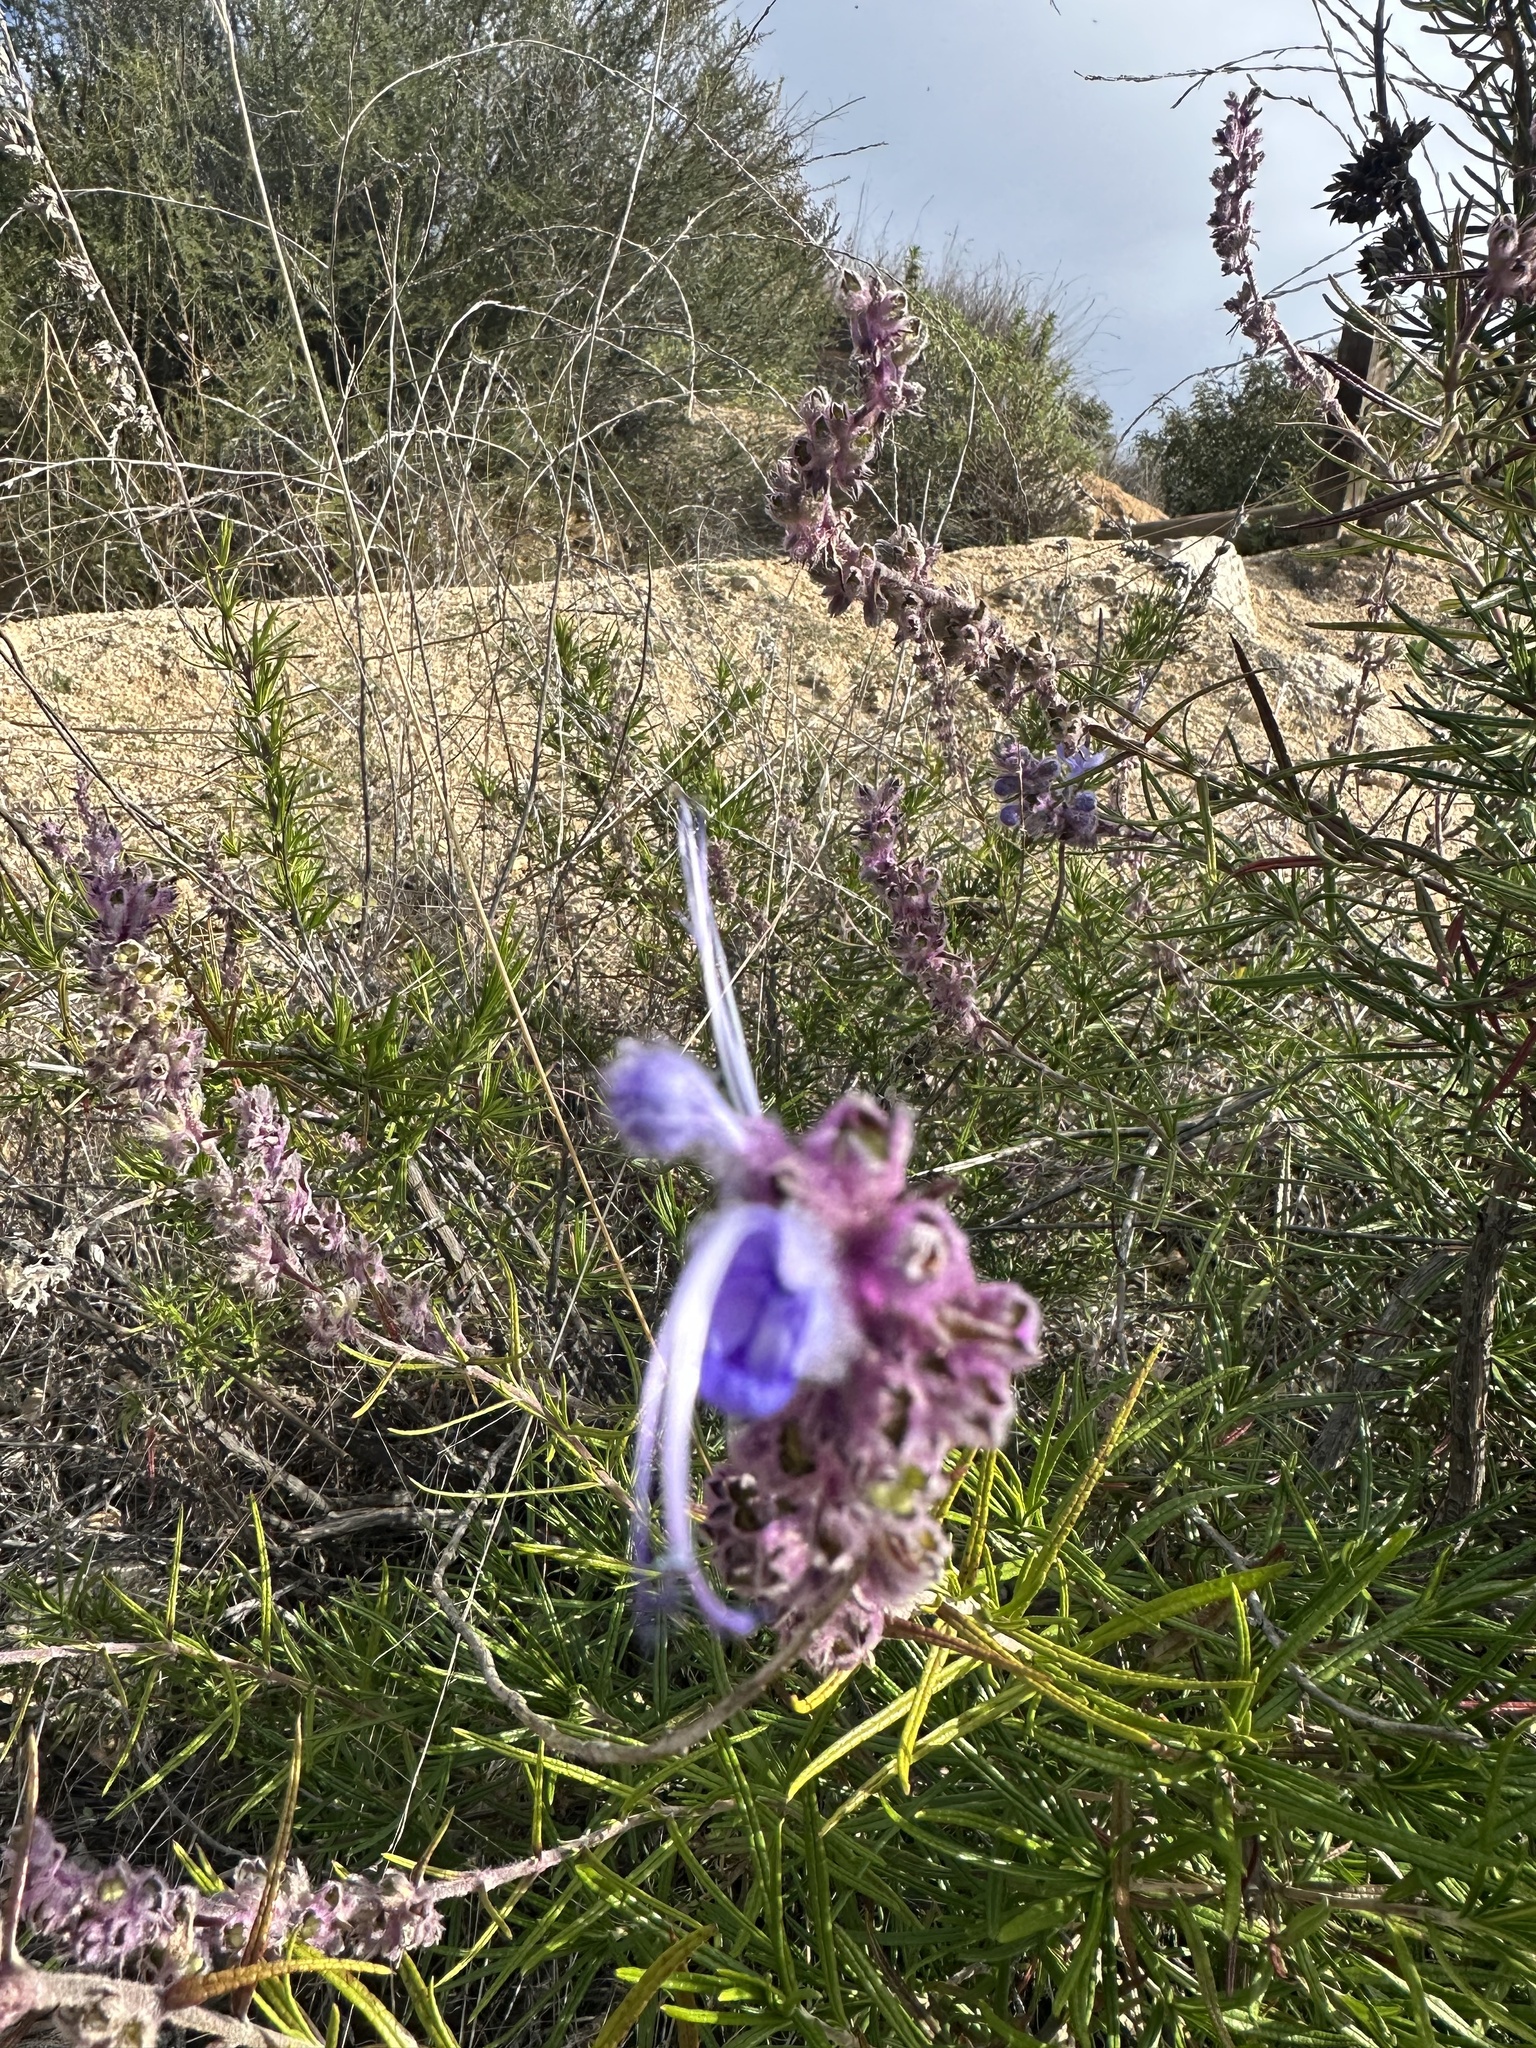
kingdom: Plantae
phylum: Tracheophyta
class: Magnoliopsida
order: Lamiales
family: Lamiaceae
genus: Trichostema
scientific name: Trichostema lanatum
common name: Woolly bluecurls
